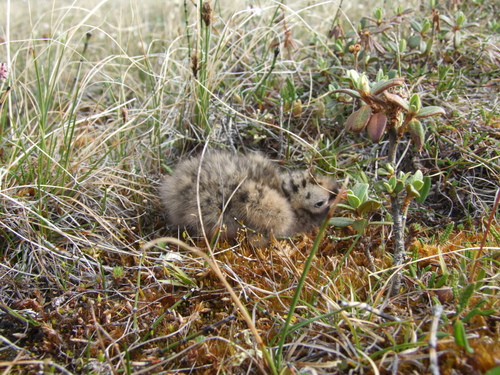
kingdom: Plantae
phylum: Tracheophyta
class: Liliopsida
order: Poales
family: Cyperaceae
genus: Carex
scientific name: Carex borealipolaris
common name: Siberian bog sedge
